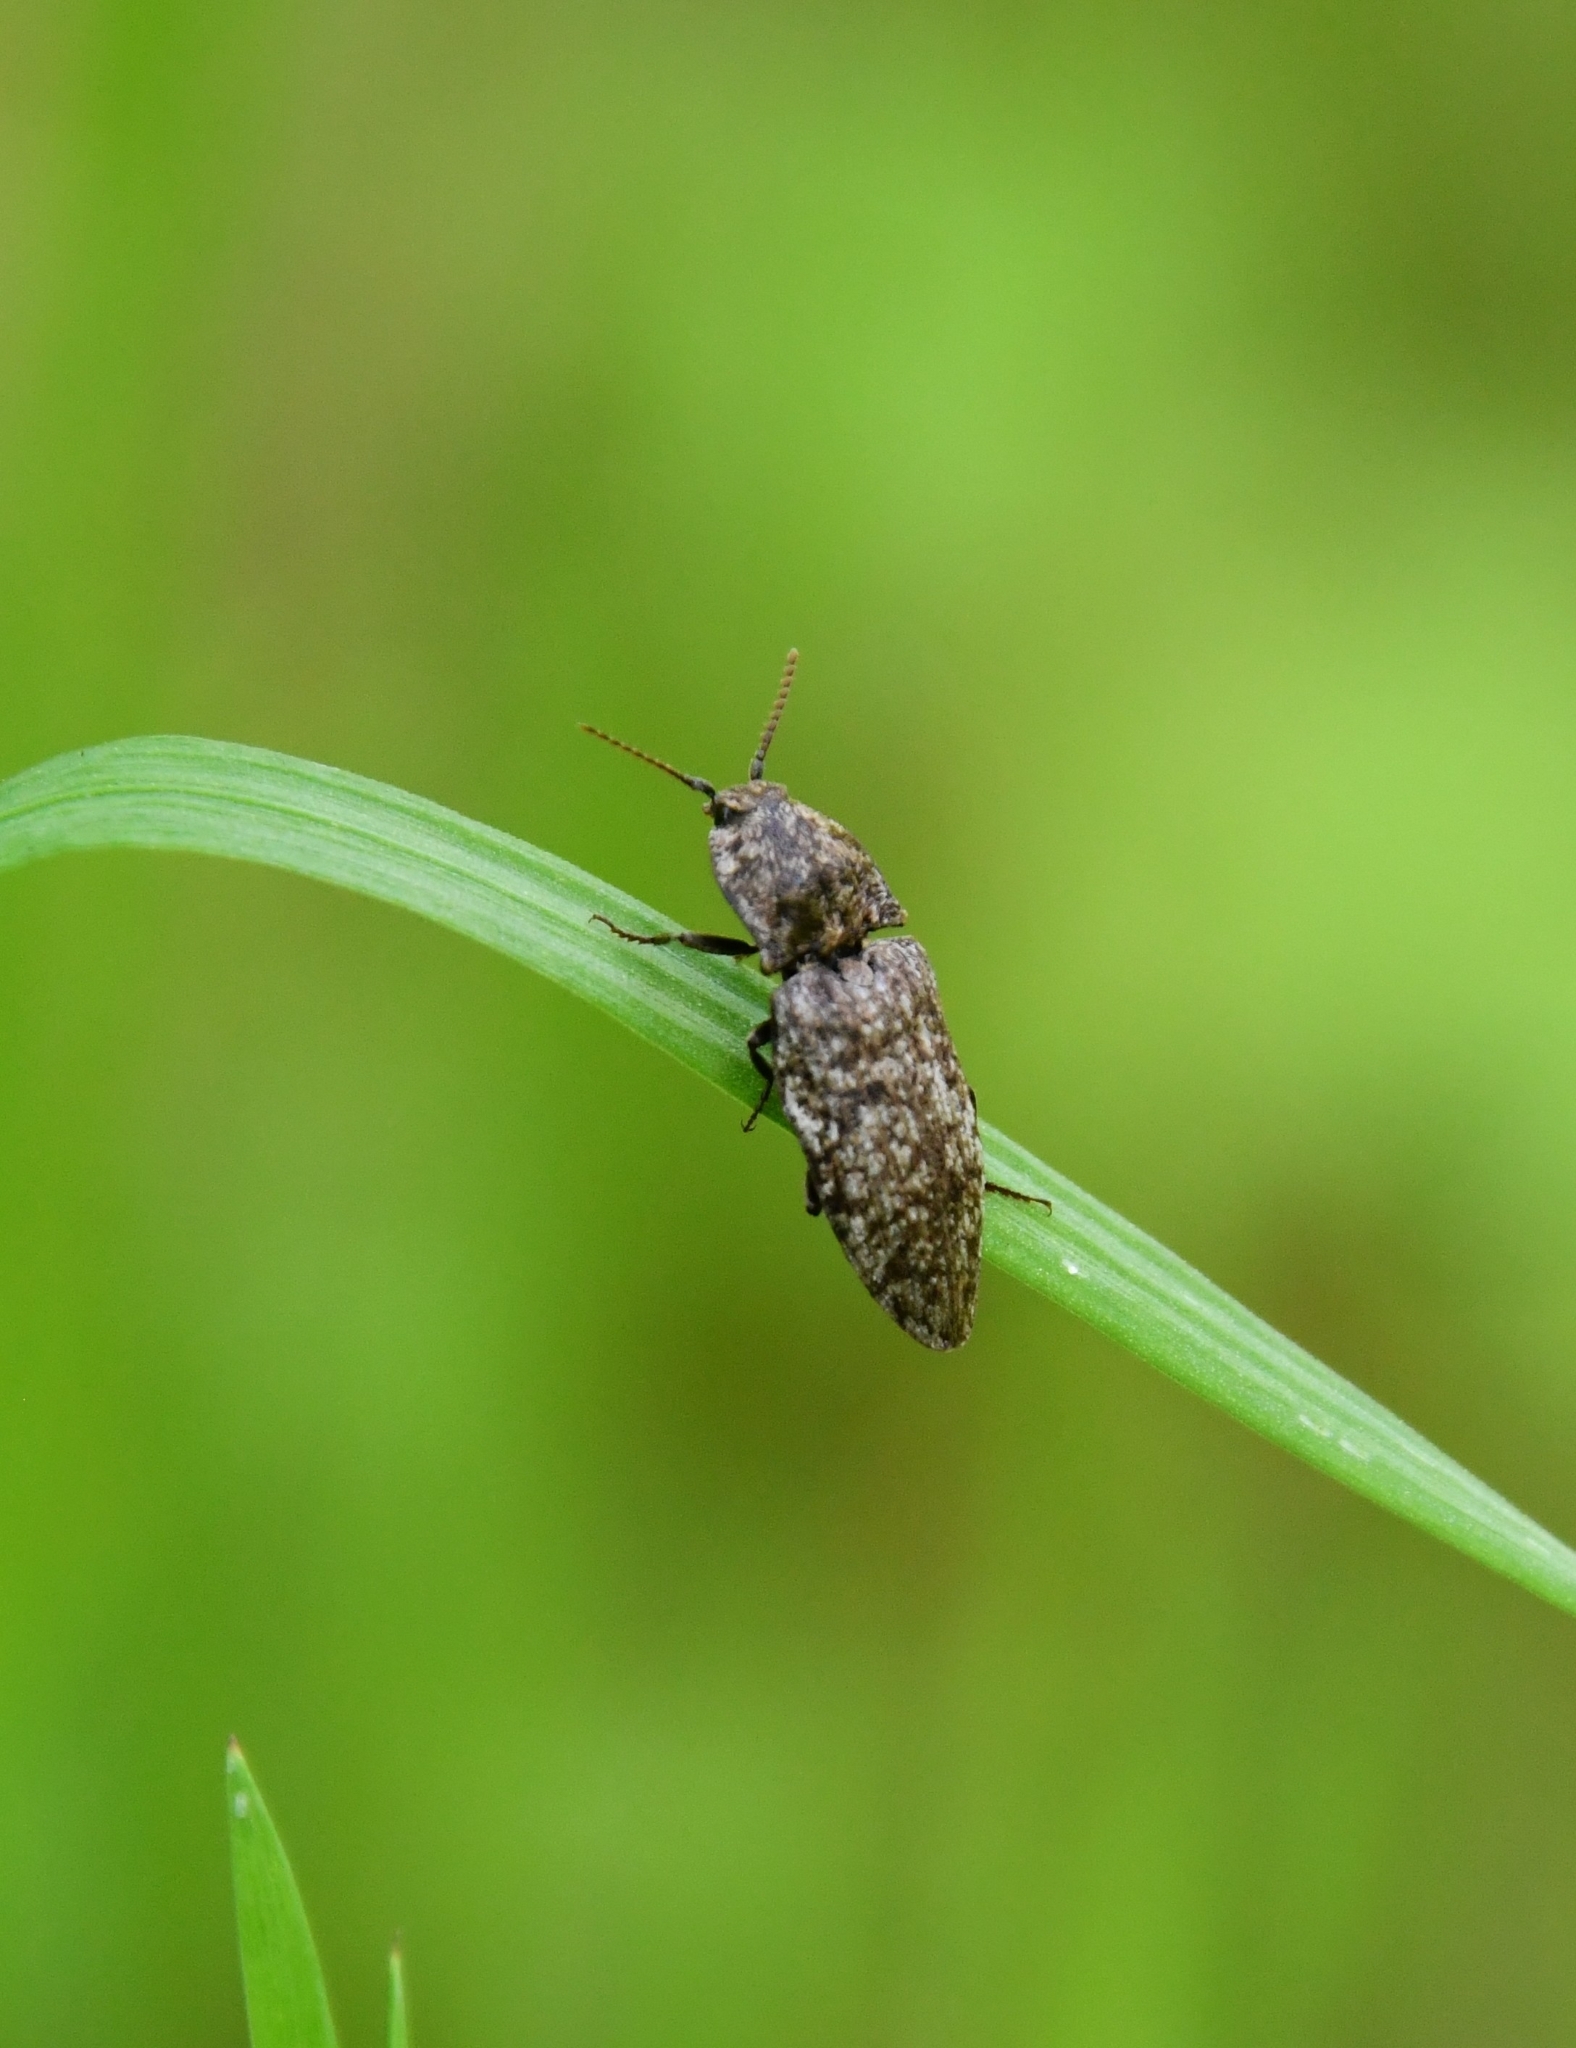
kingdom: Animalia
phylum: Arthropoda
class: Insecta
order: Coleoptera
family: Elateridae
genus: Agrypnus
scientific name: Agrypnus murinus
